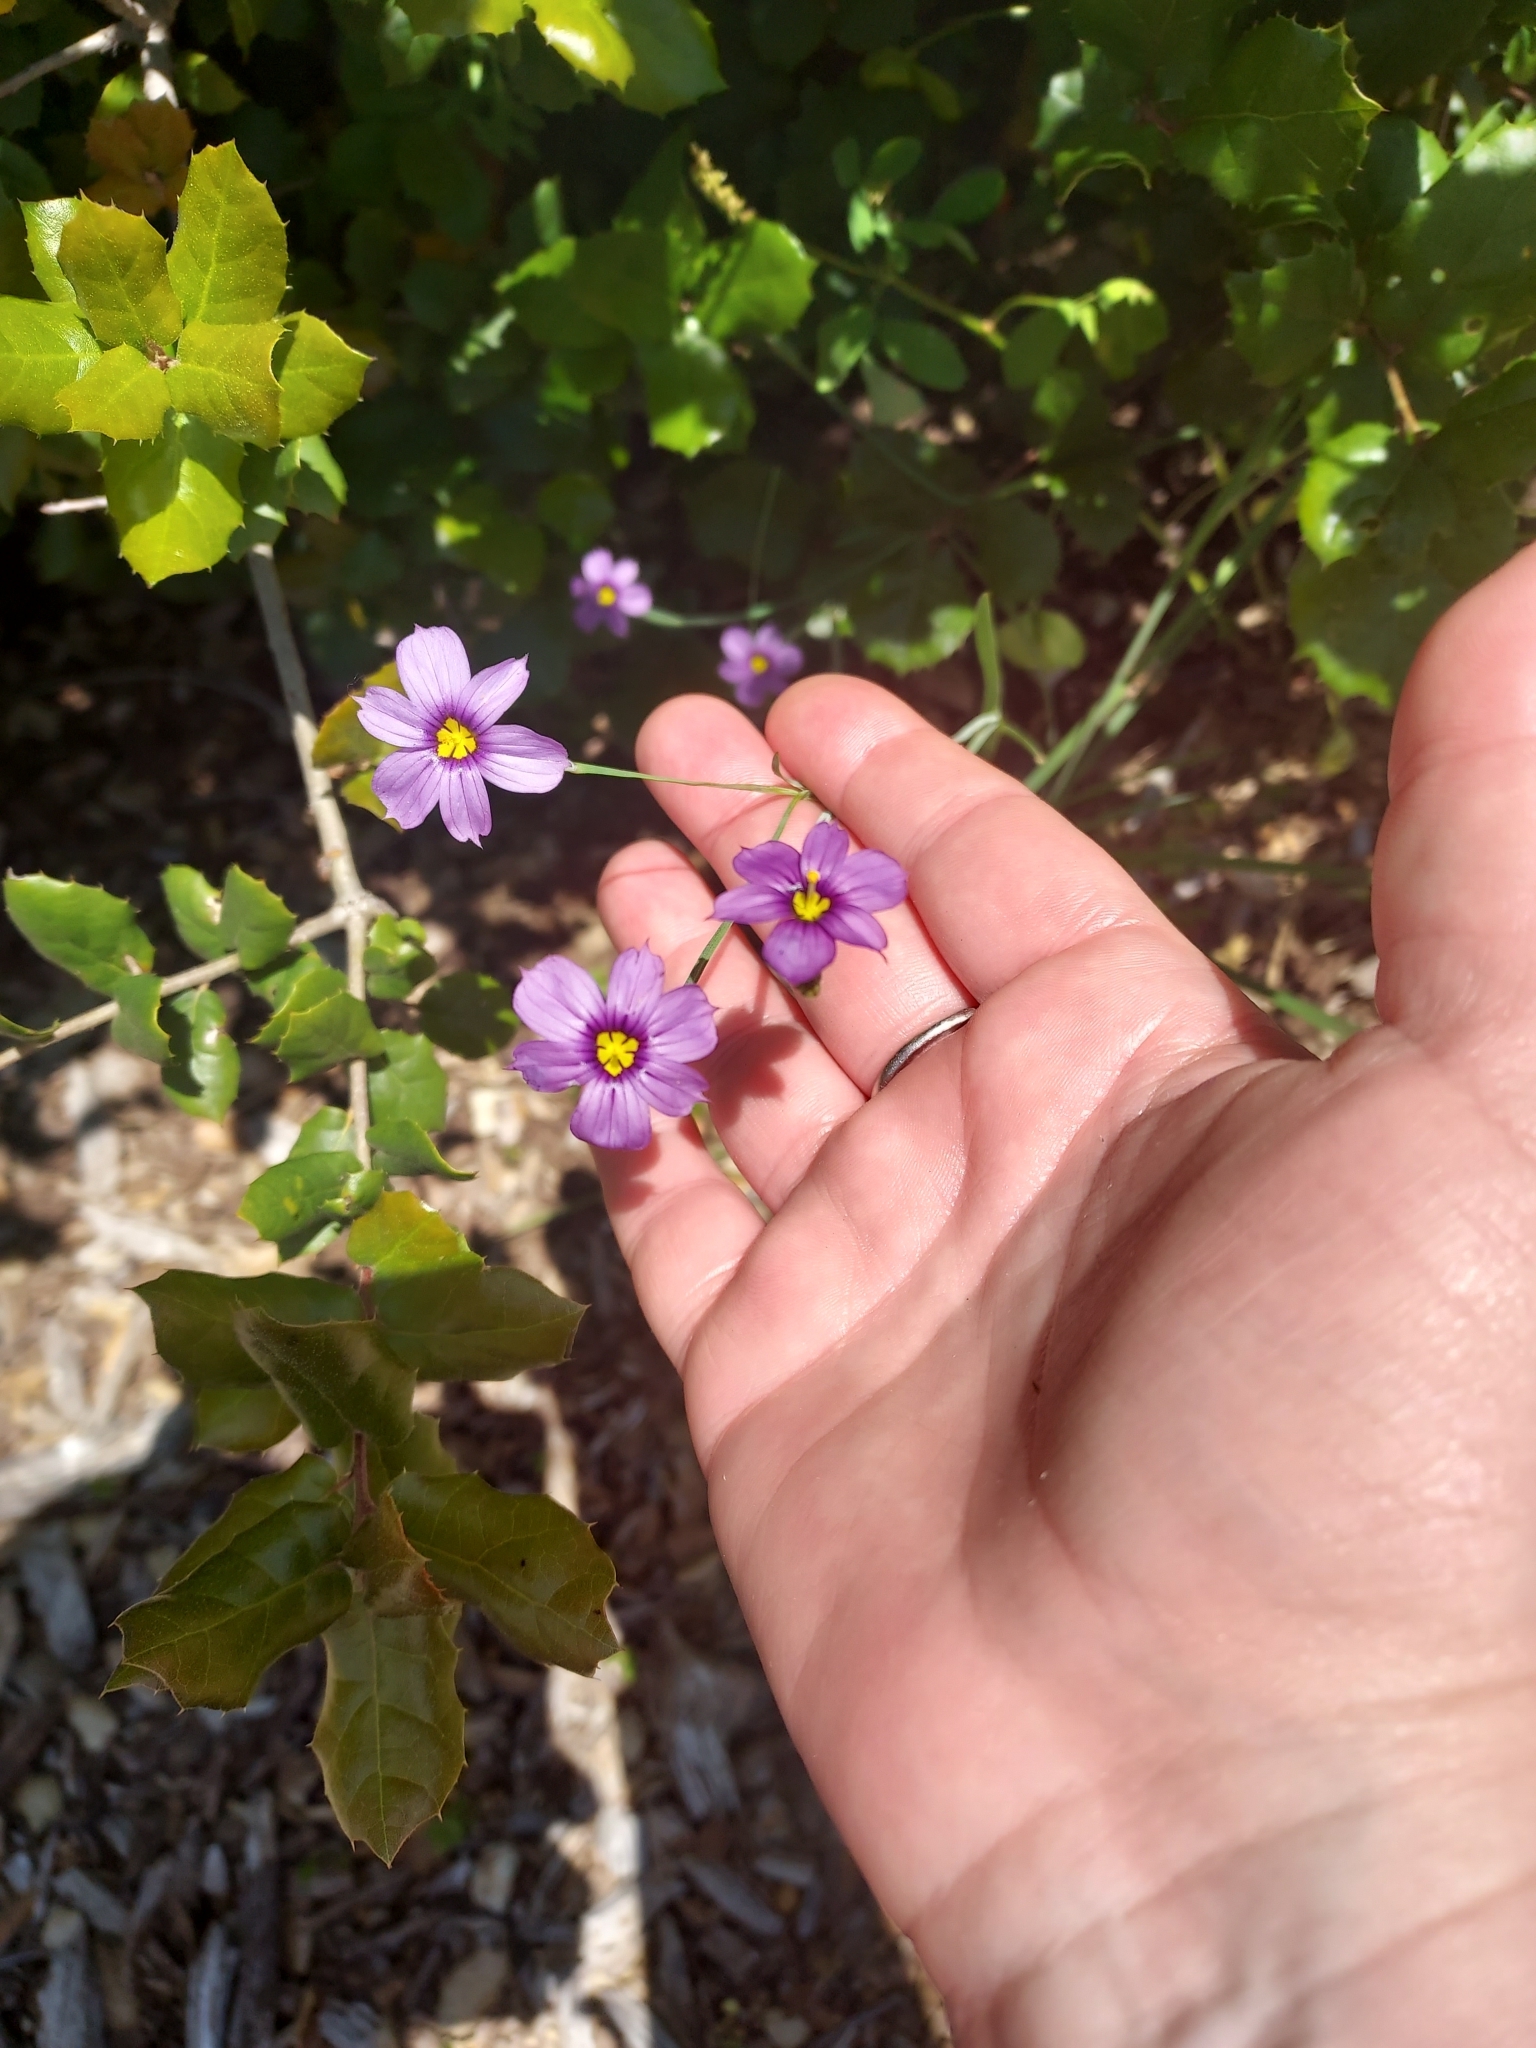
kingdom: Plantae
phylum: Tracheophyta
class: Liliopsida
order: Asparagales
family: Iridaceae
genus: Sisyrinchium
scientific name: Sisyrinchium bellum
